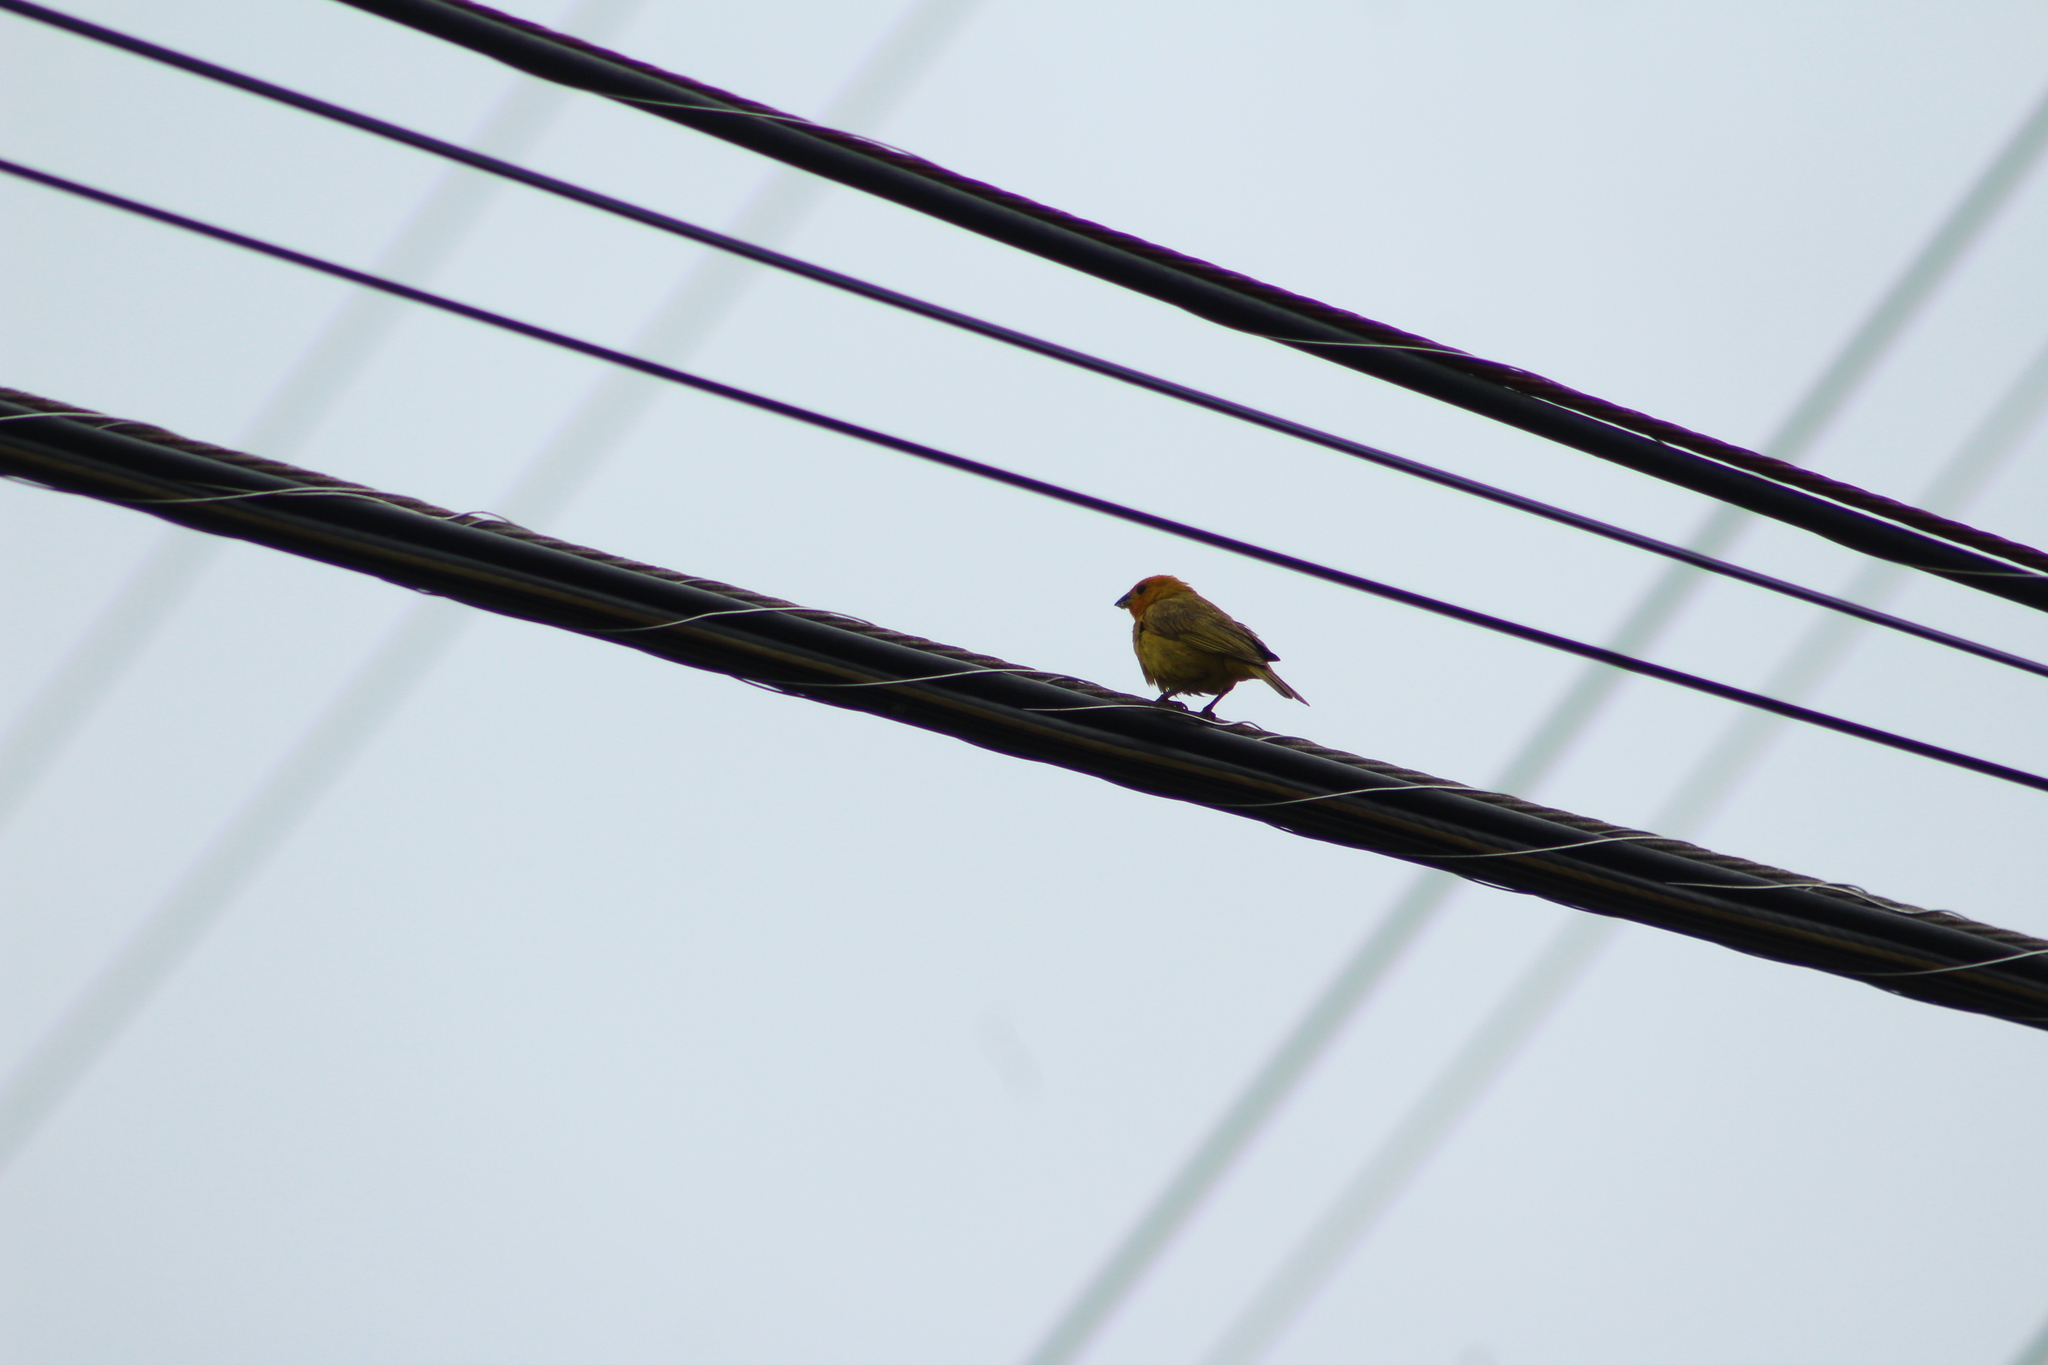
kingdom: Animalia
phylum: Chordata
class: Aves
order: Passeriformes
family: Thraupidae
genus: Sicalis
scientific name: Sicalis flaveola
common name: Saffron finch
